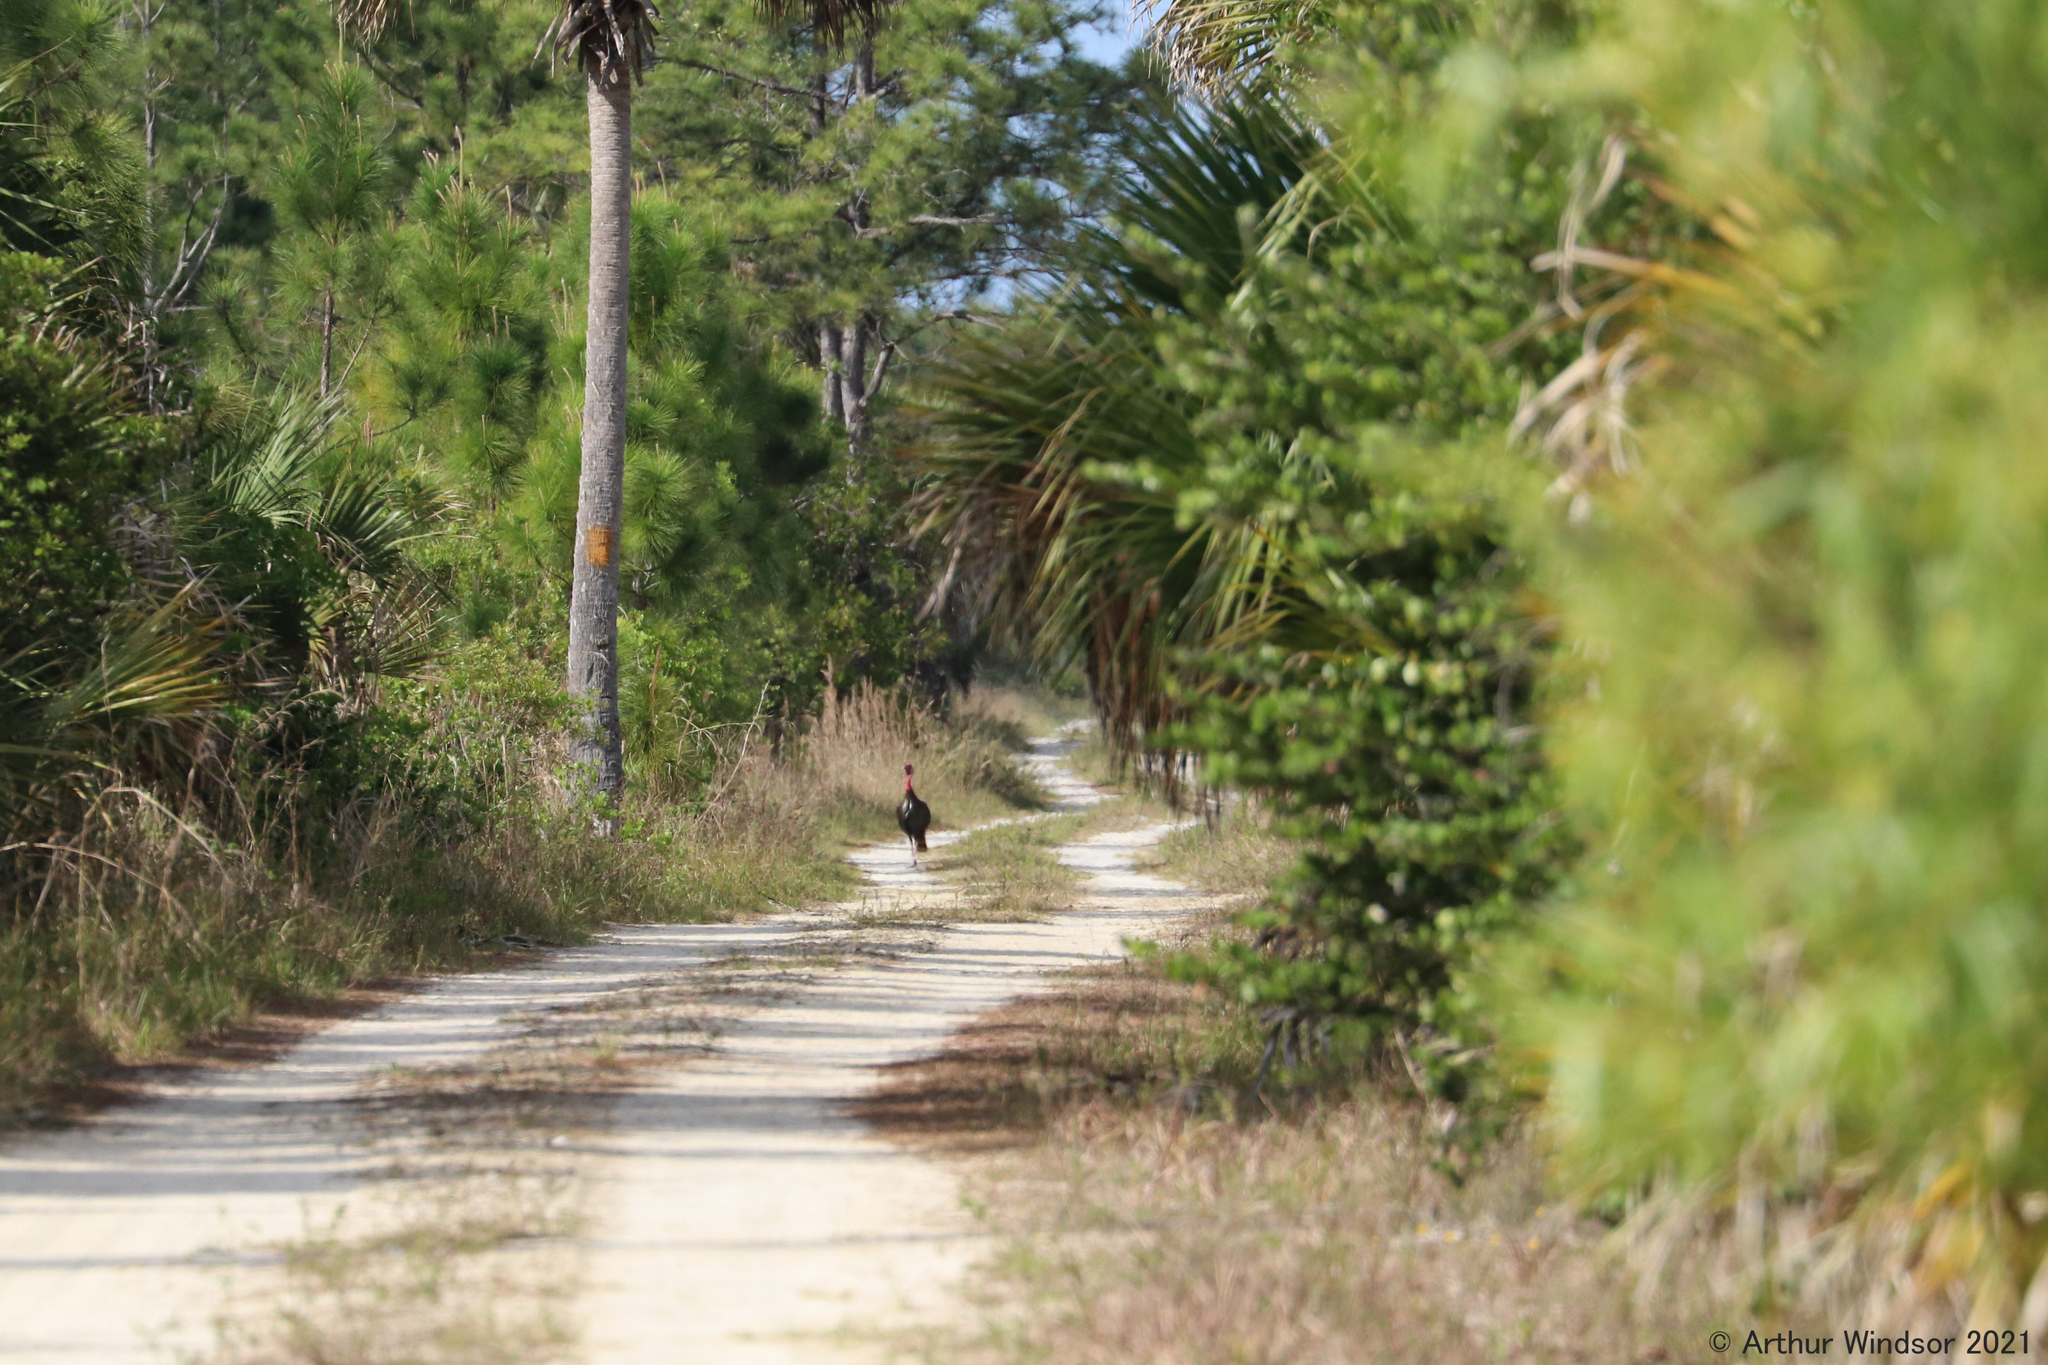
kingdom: Animalia
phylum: Chordata
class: Aves
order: Galliformes
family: Phasianidae
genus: Meleagris
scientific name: Meleagris gallopavo
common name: Wild turkey
